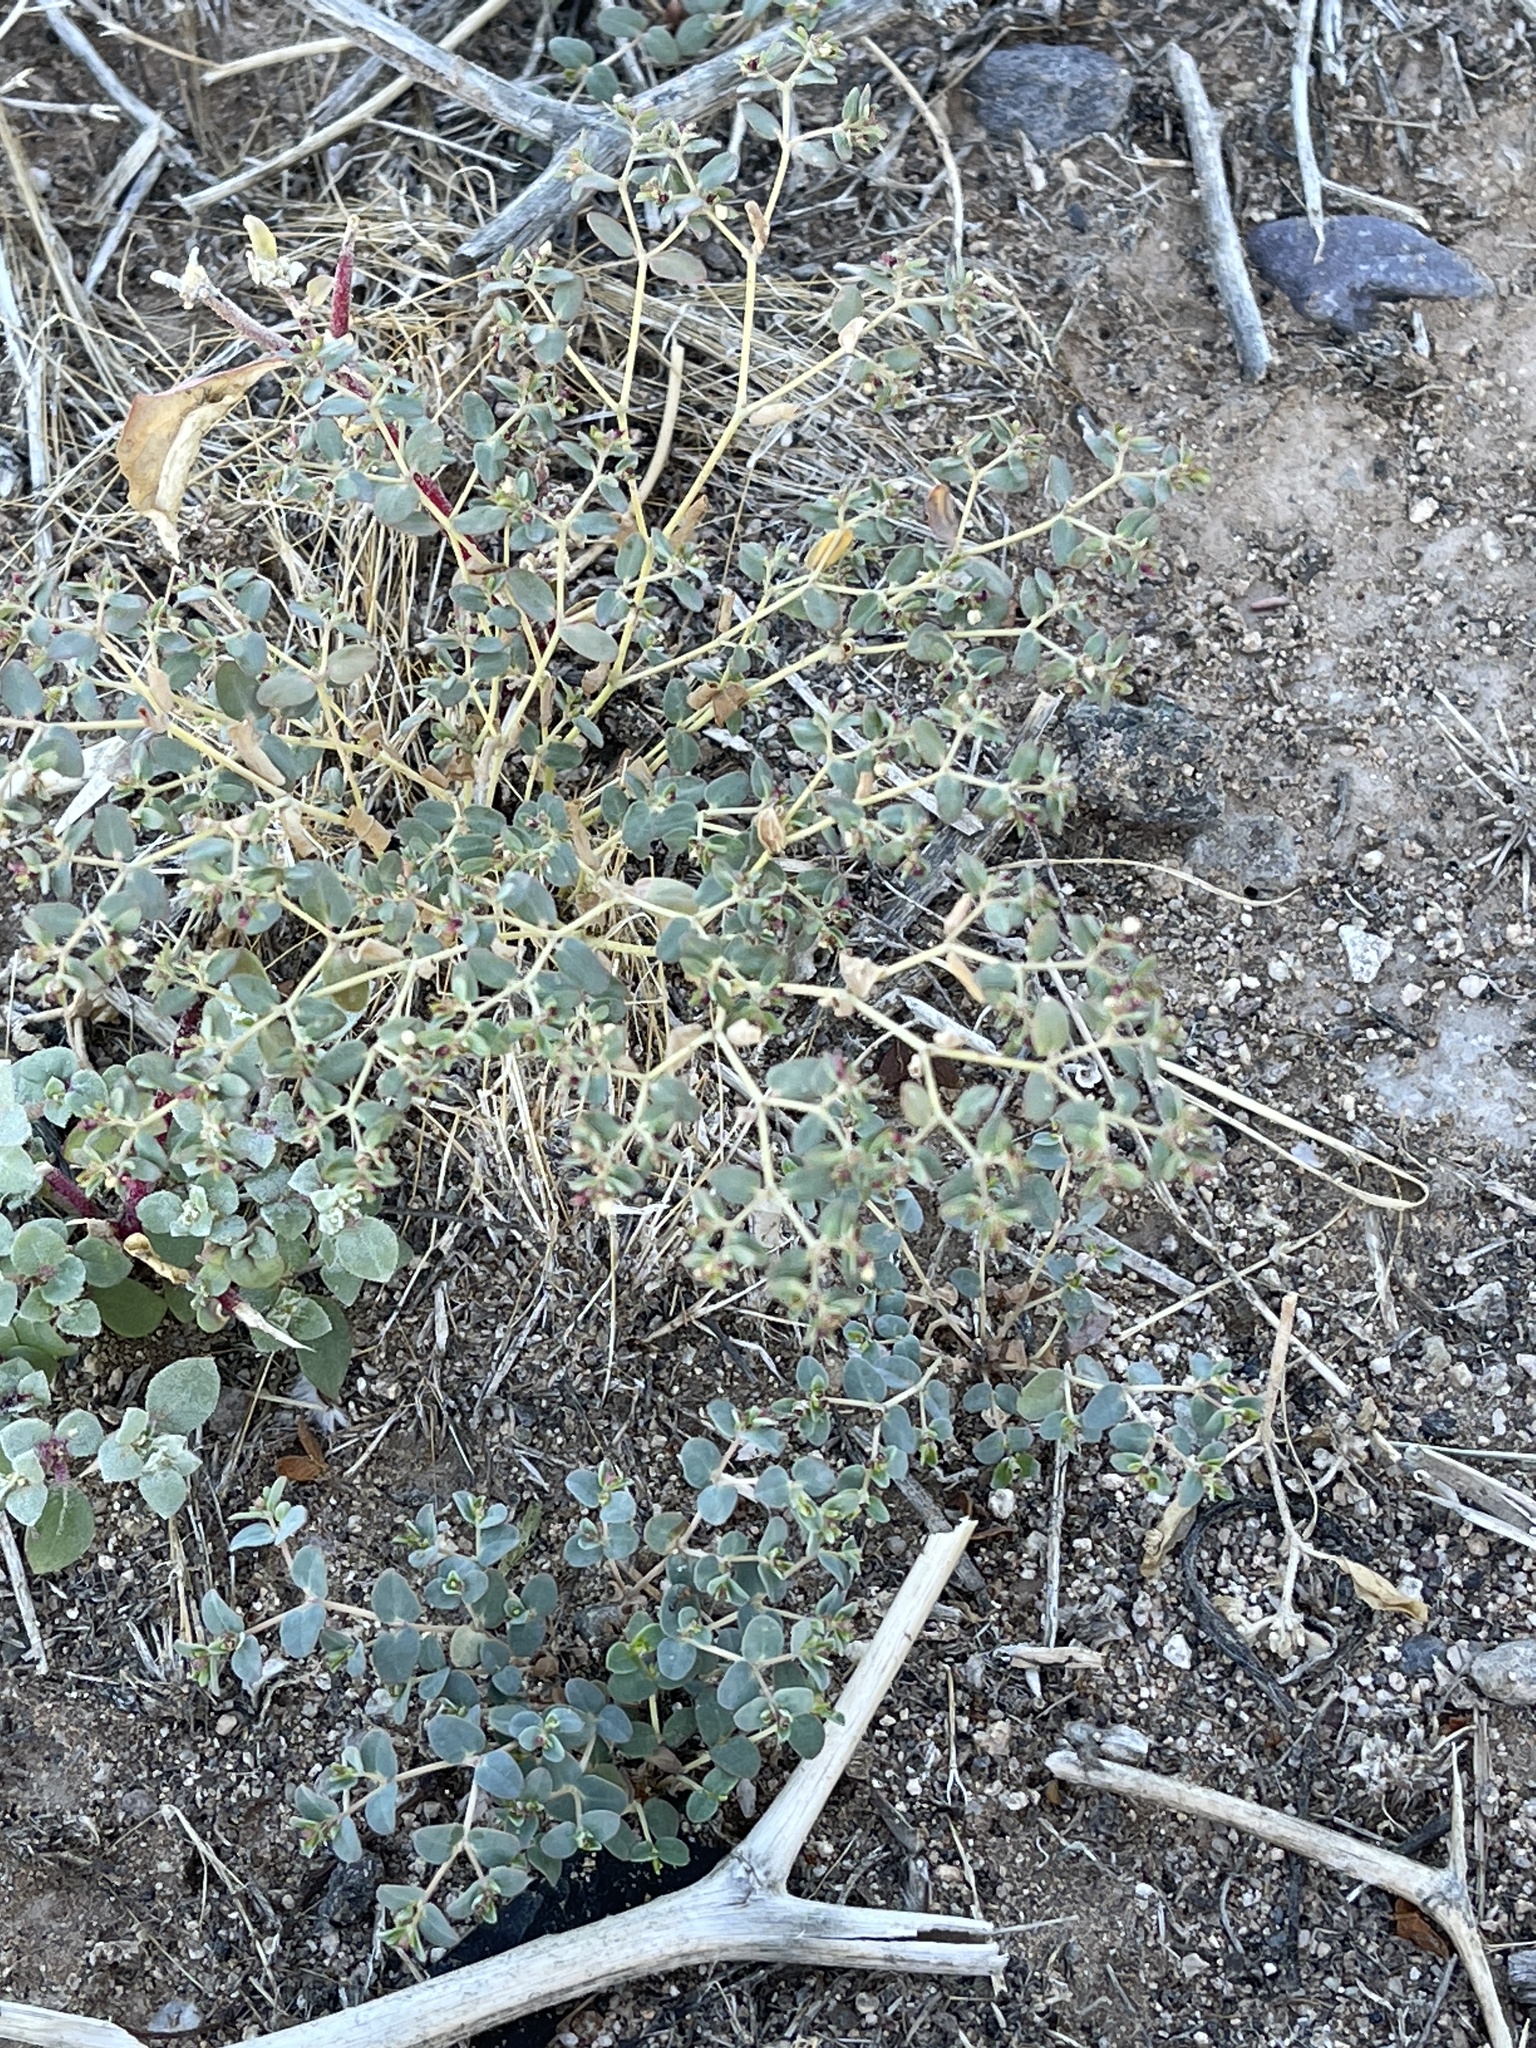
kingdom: Plantae
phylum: Tracheophyta
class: Magnoliopsida
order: Malpighiales
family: Euphorbiaceae
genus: Euphorbia
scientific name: Euphorbia polycarpa
